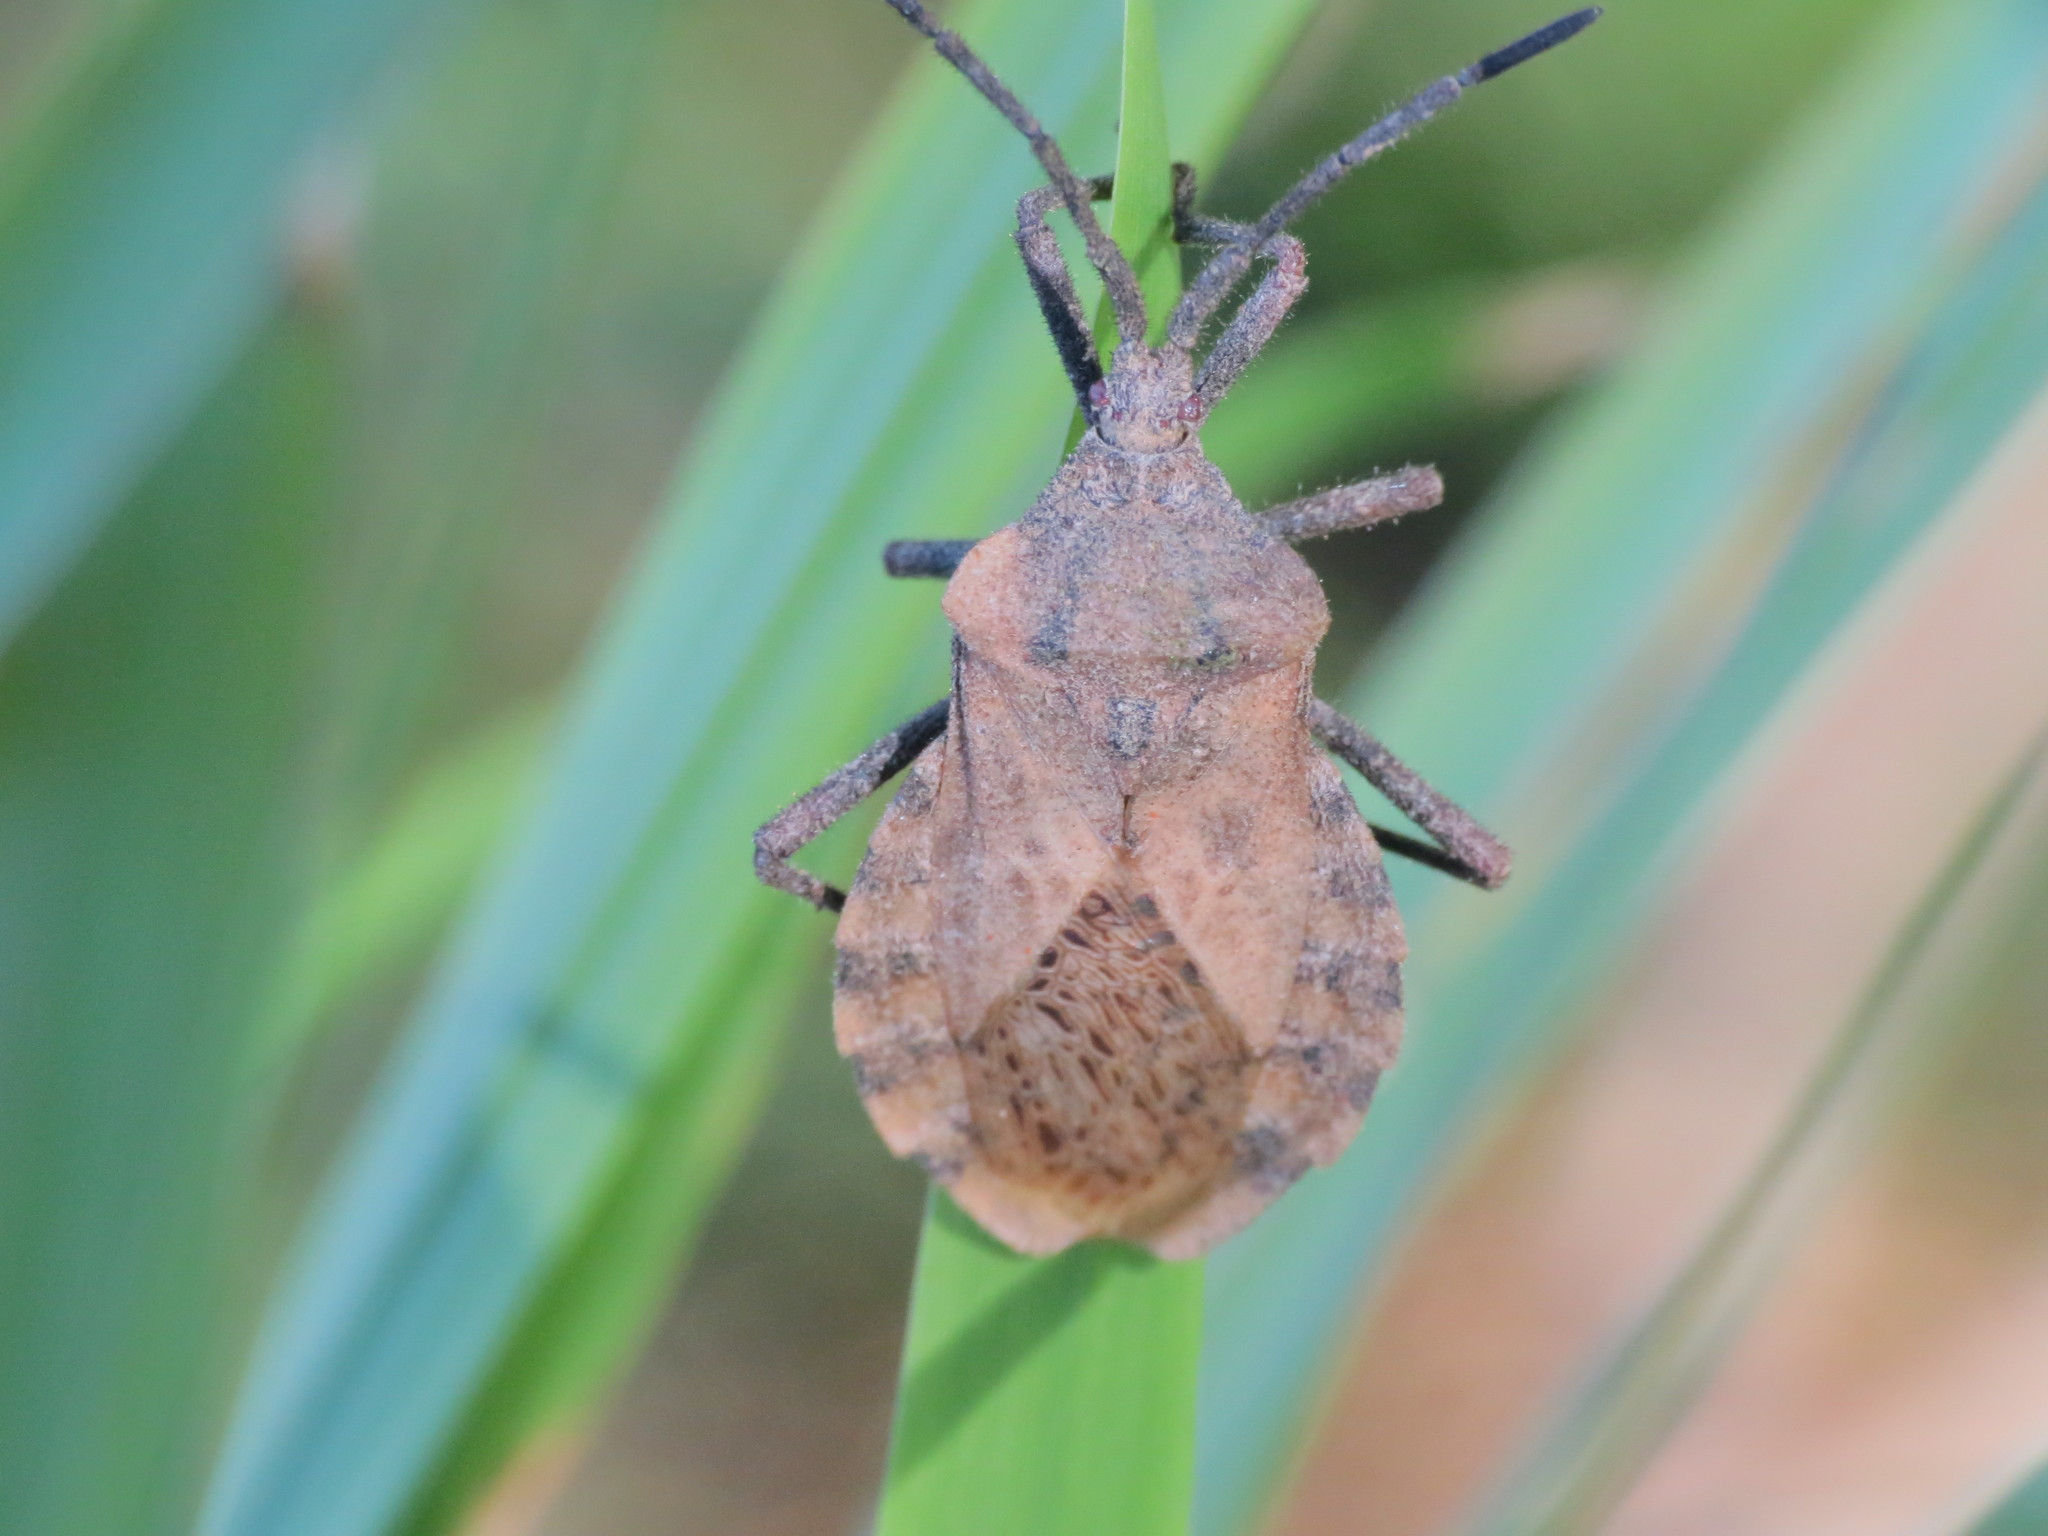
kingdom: Animalia
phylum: Arthropoda
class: Insecta
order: Hemiptera
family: Coreidae
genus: Spartocera
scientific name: Spartocera fusca
